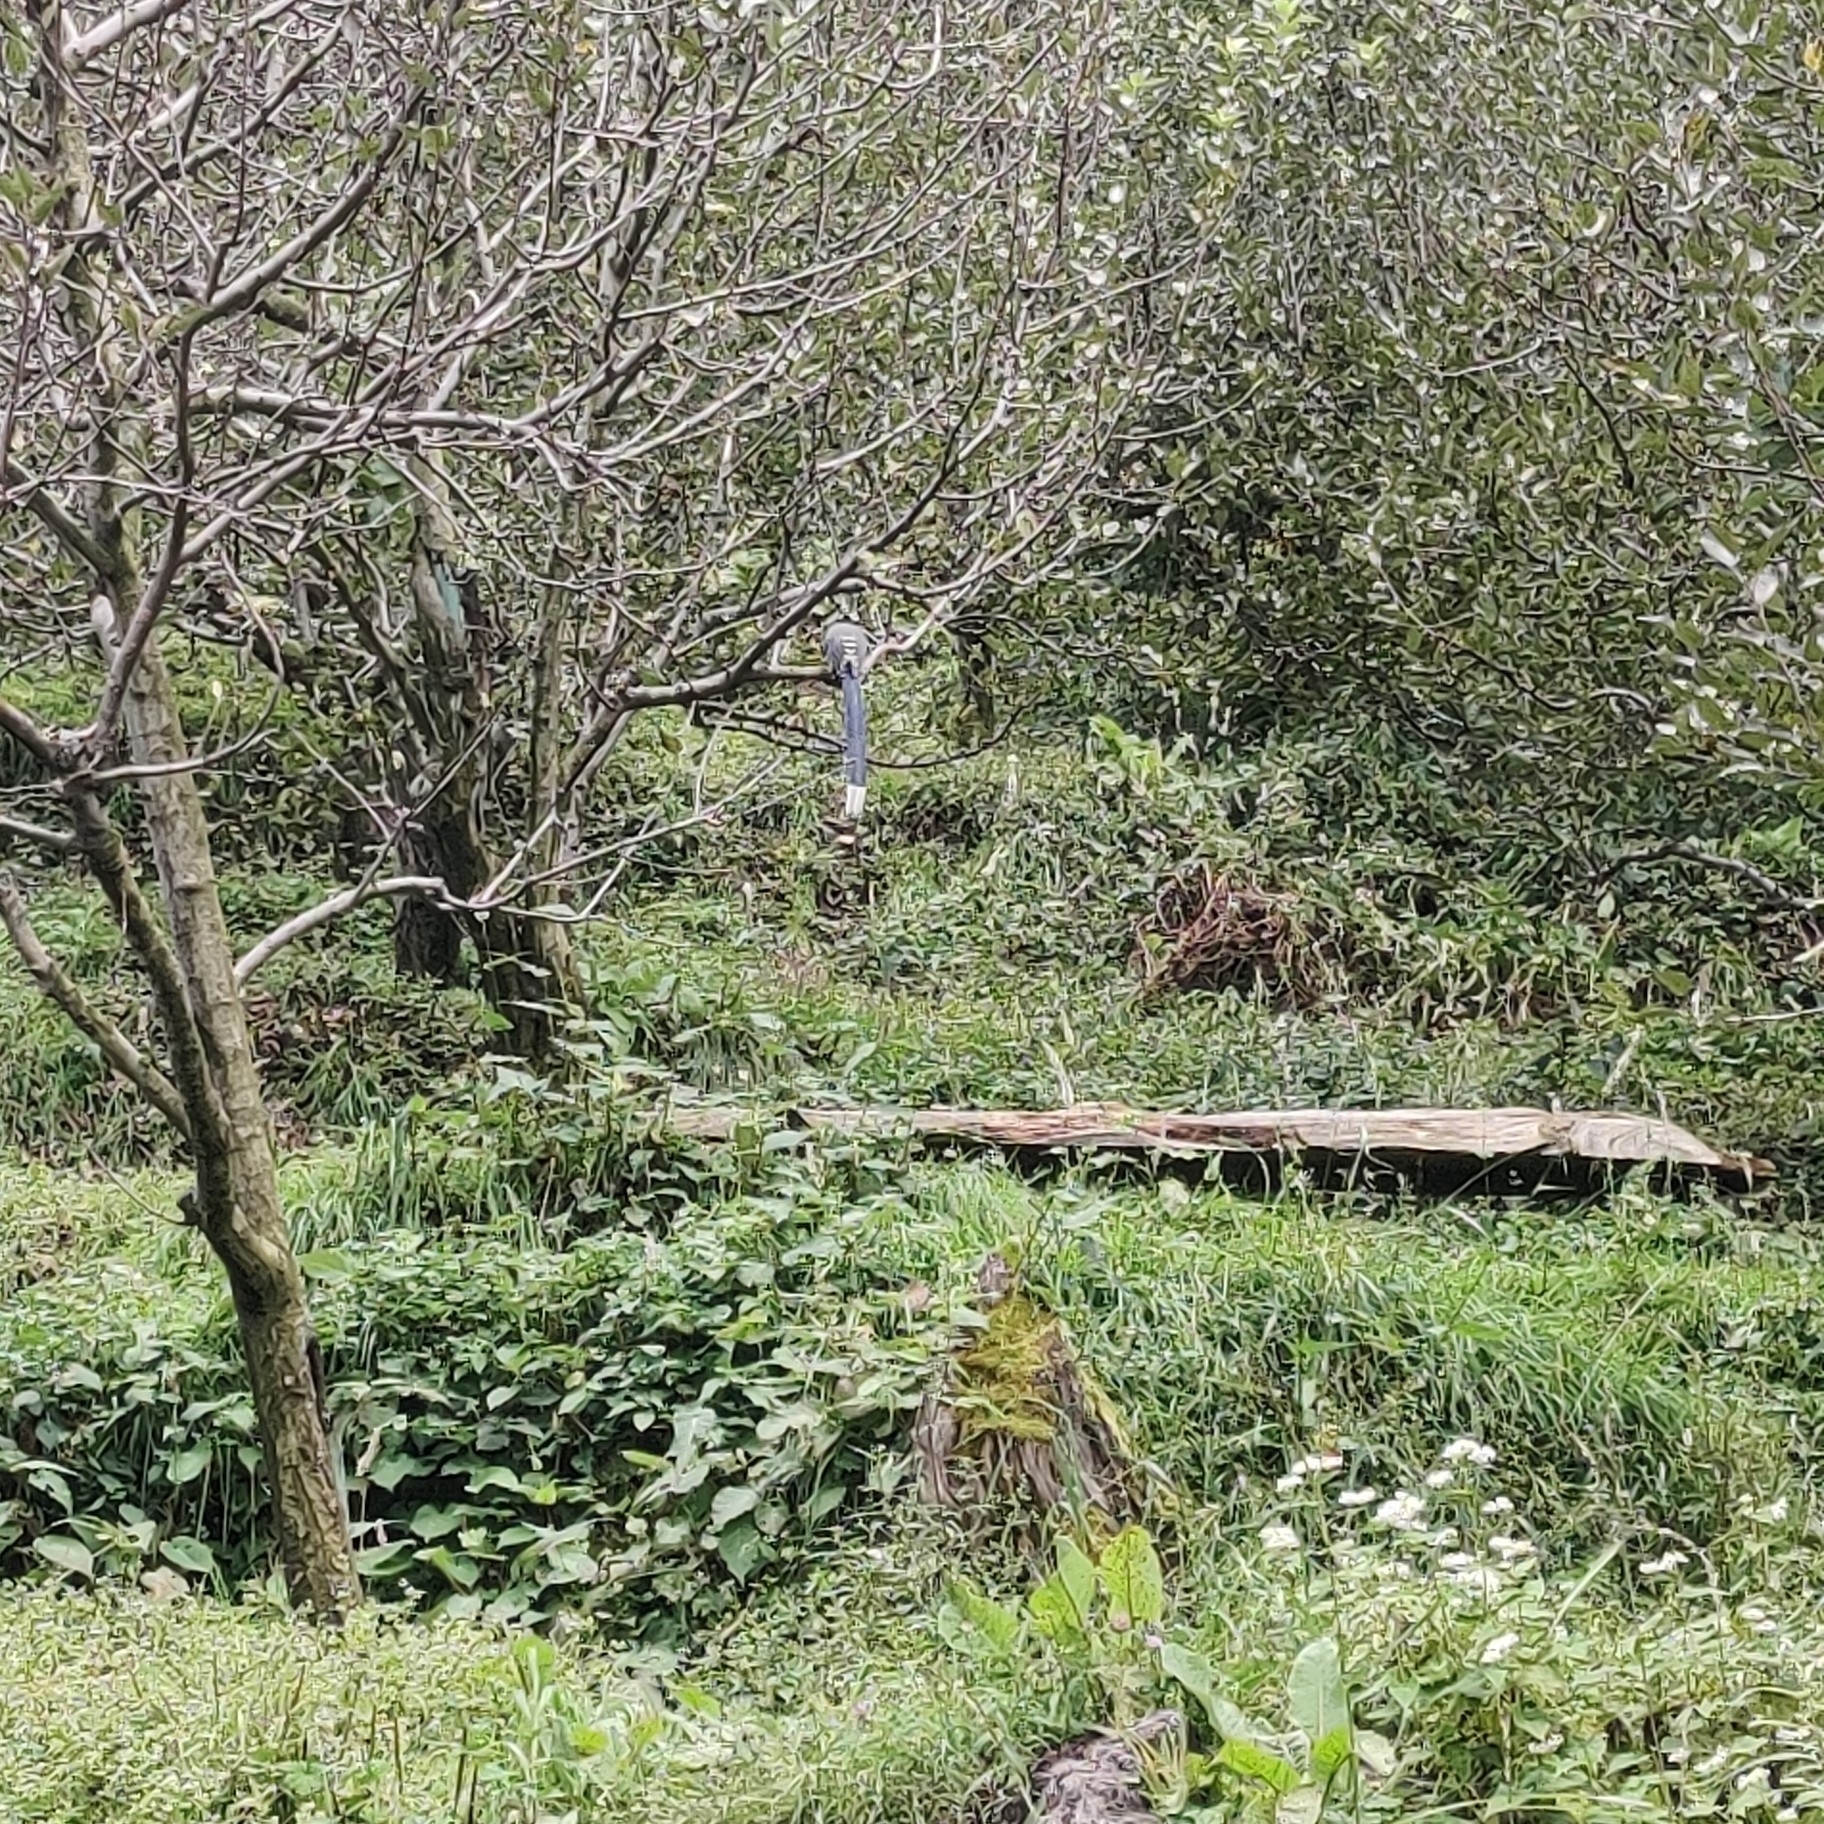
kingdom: Animalia
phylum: Chordata
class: Aves
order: Passeriformes
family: Corvidae
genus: Urocissa
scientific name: Urocissa flavirostris
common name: Yellow-billed blue magpie
